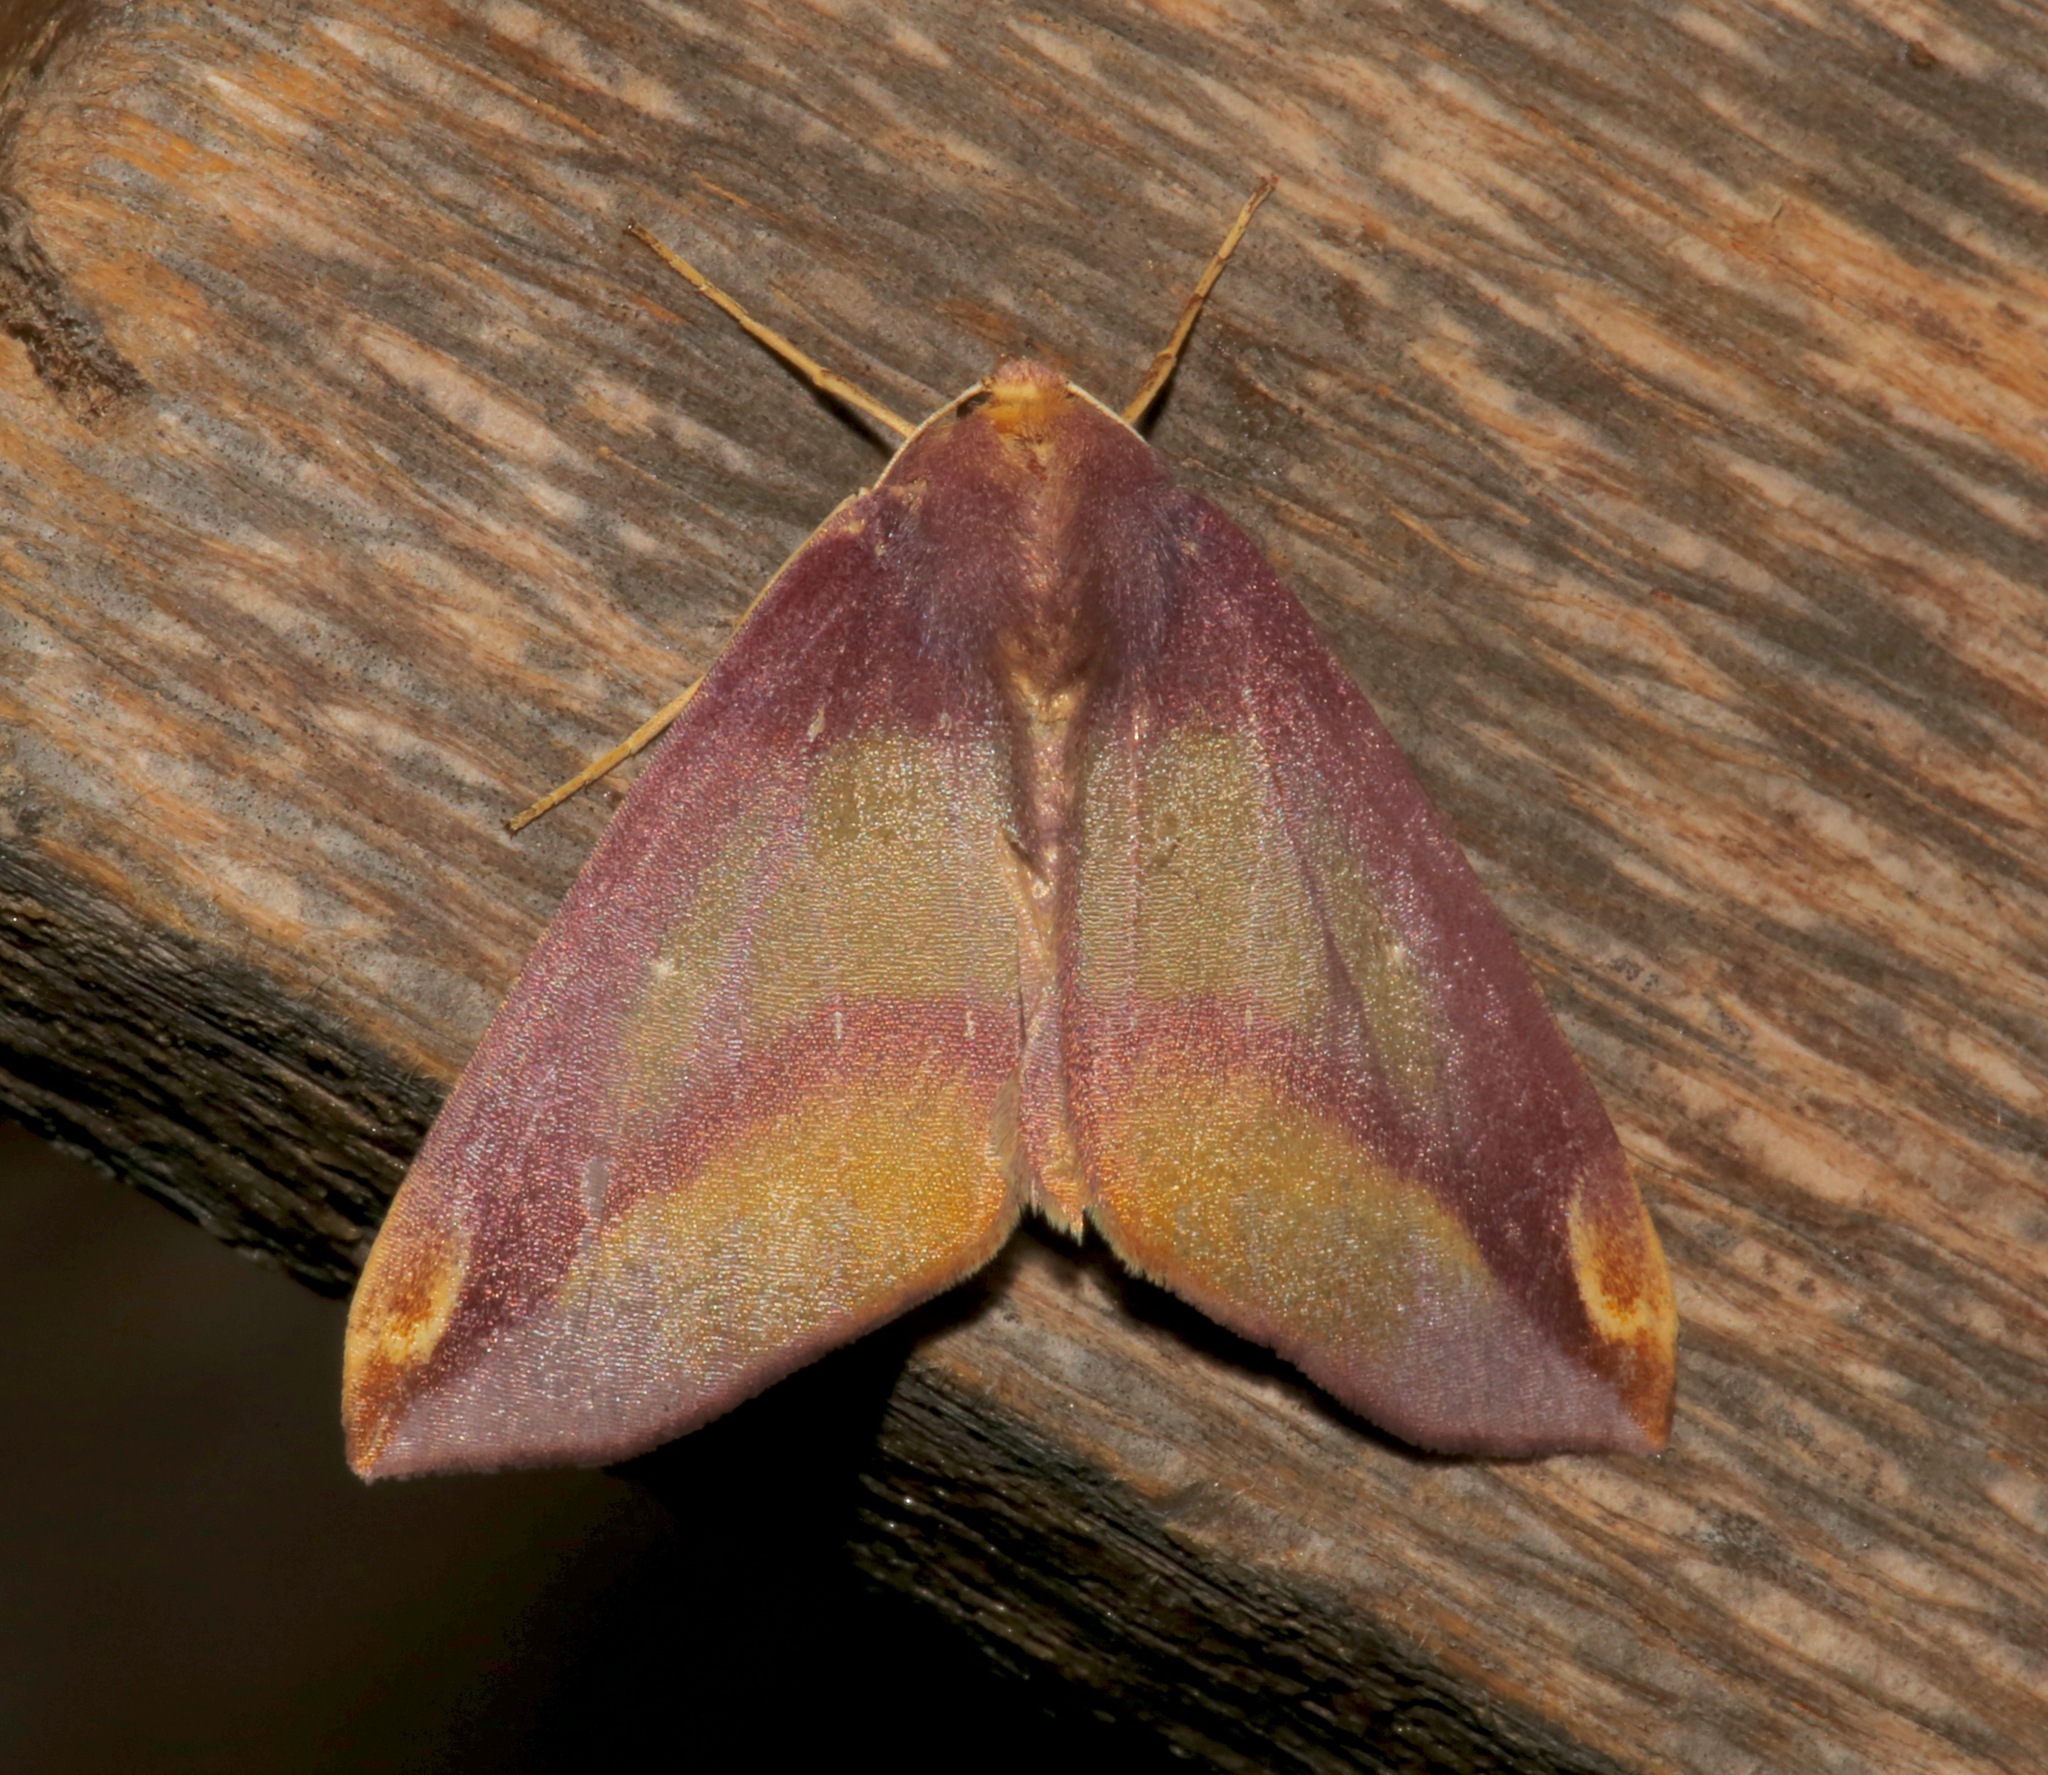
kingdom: Animalia
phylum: Arthropoda
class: Insecta
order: Lepidoptera
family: Geometridae
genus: Bassania
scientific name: Bassania foingi
